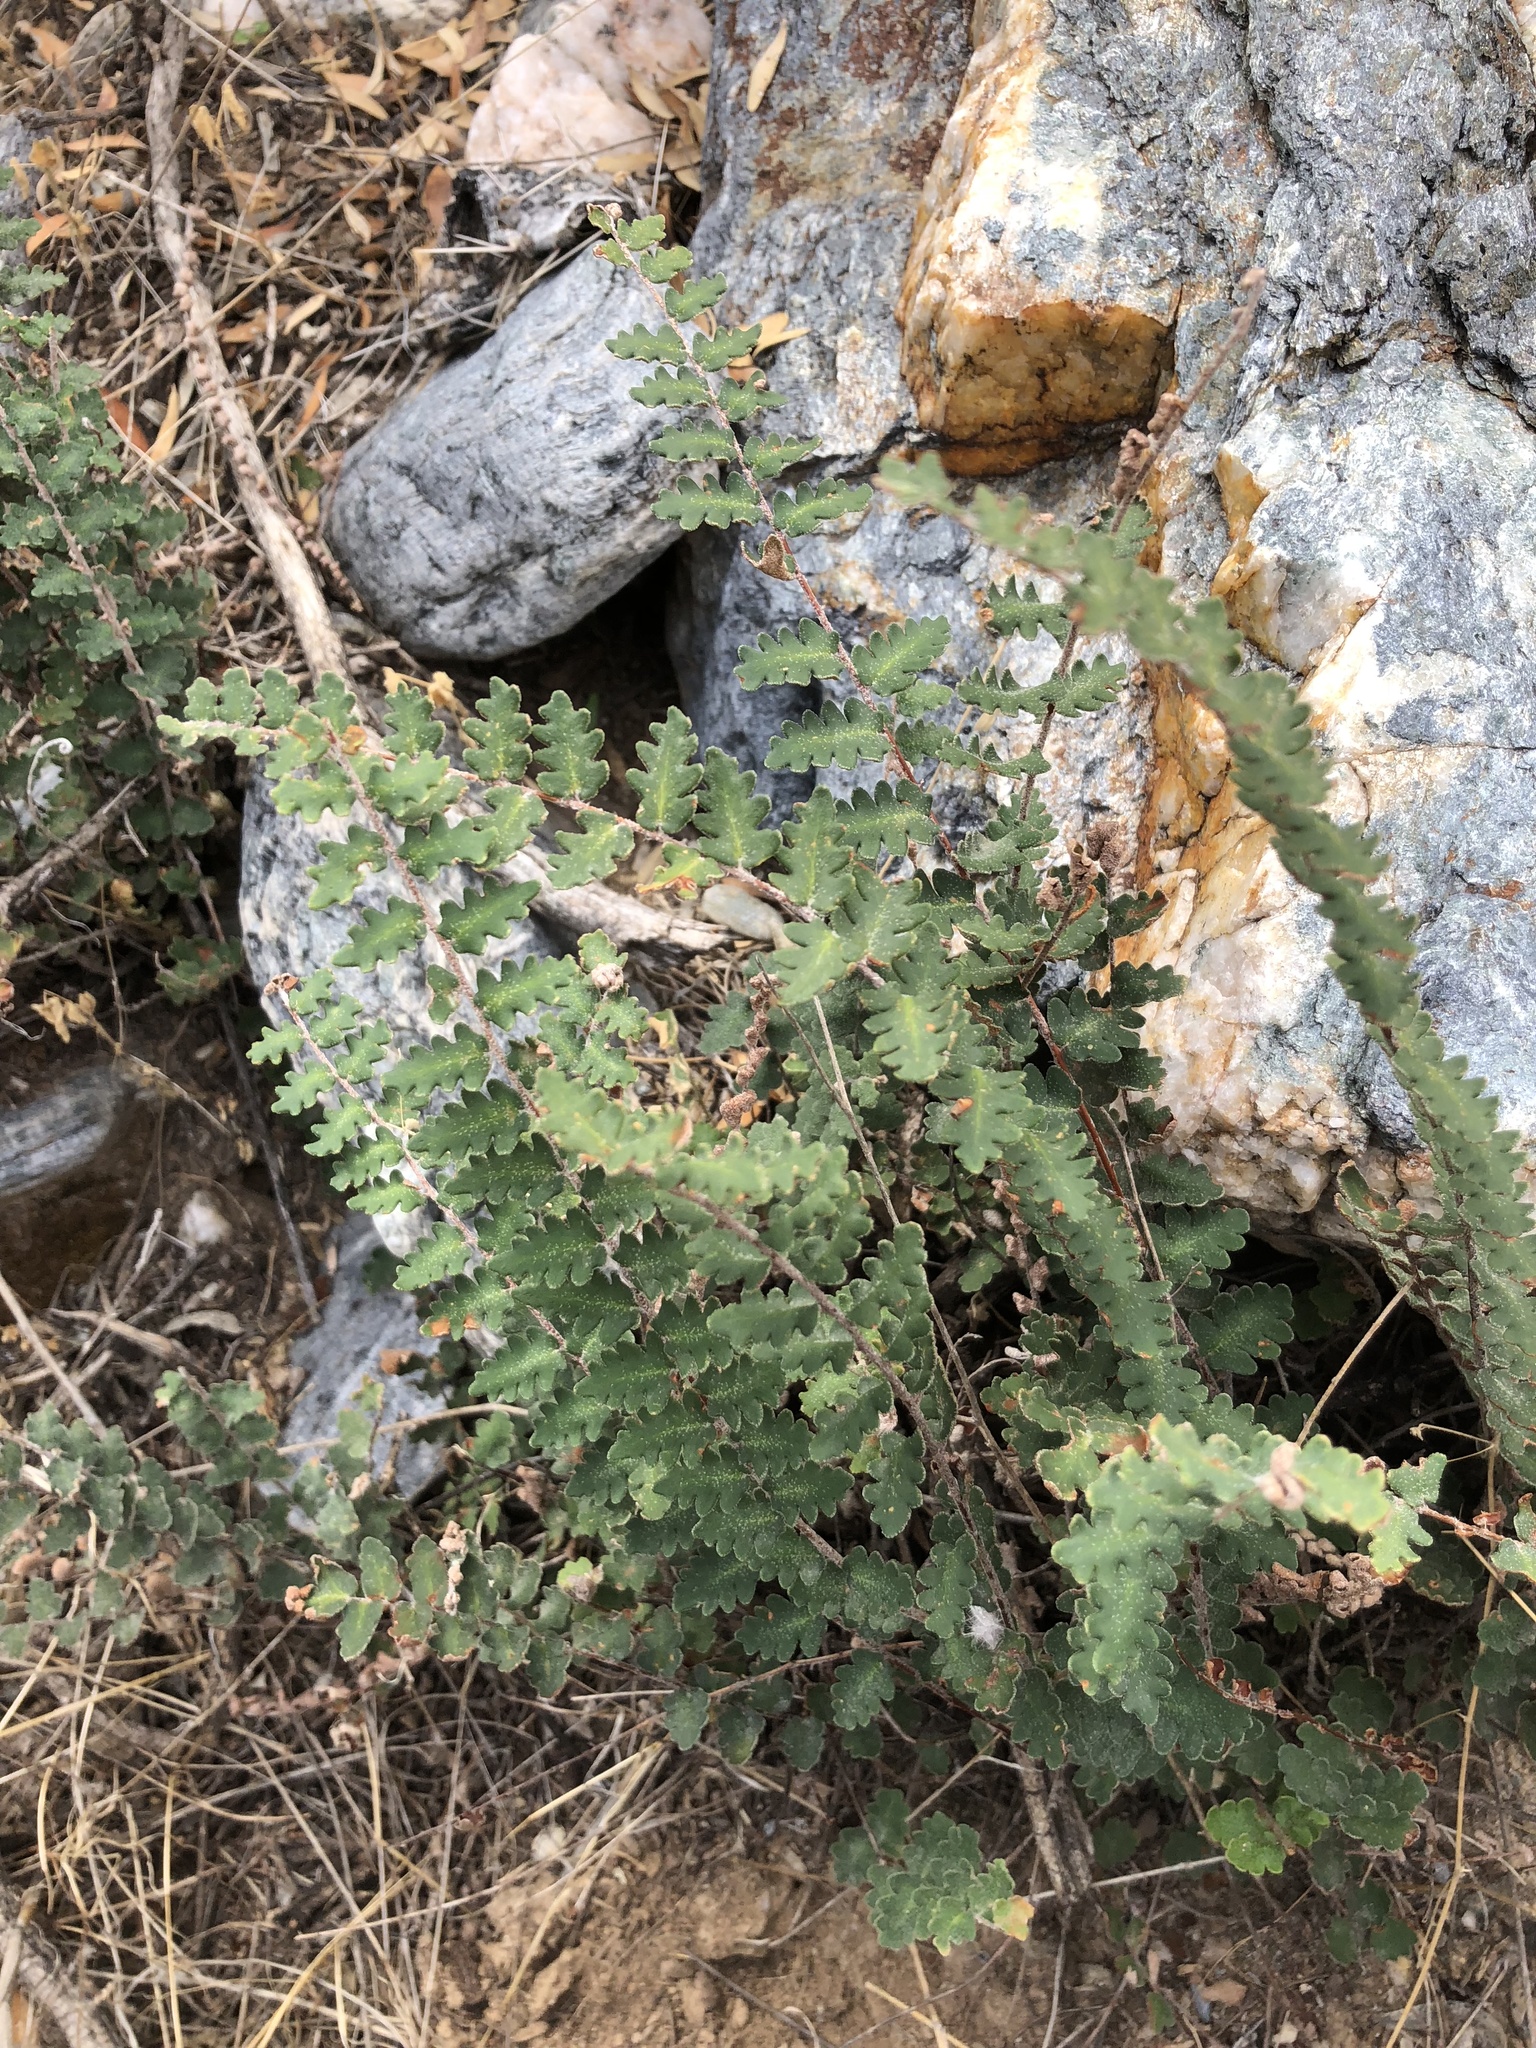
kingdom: Plantae
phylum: Tracheophyta
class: Polypodiopsida
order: Polypodiales
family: Pteridaceae
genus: Astrolepis
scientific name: Astrolepis sinuata
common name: Wavy scaly cloakfern
